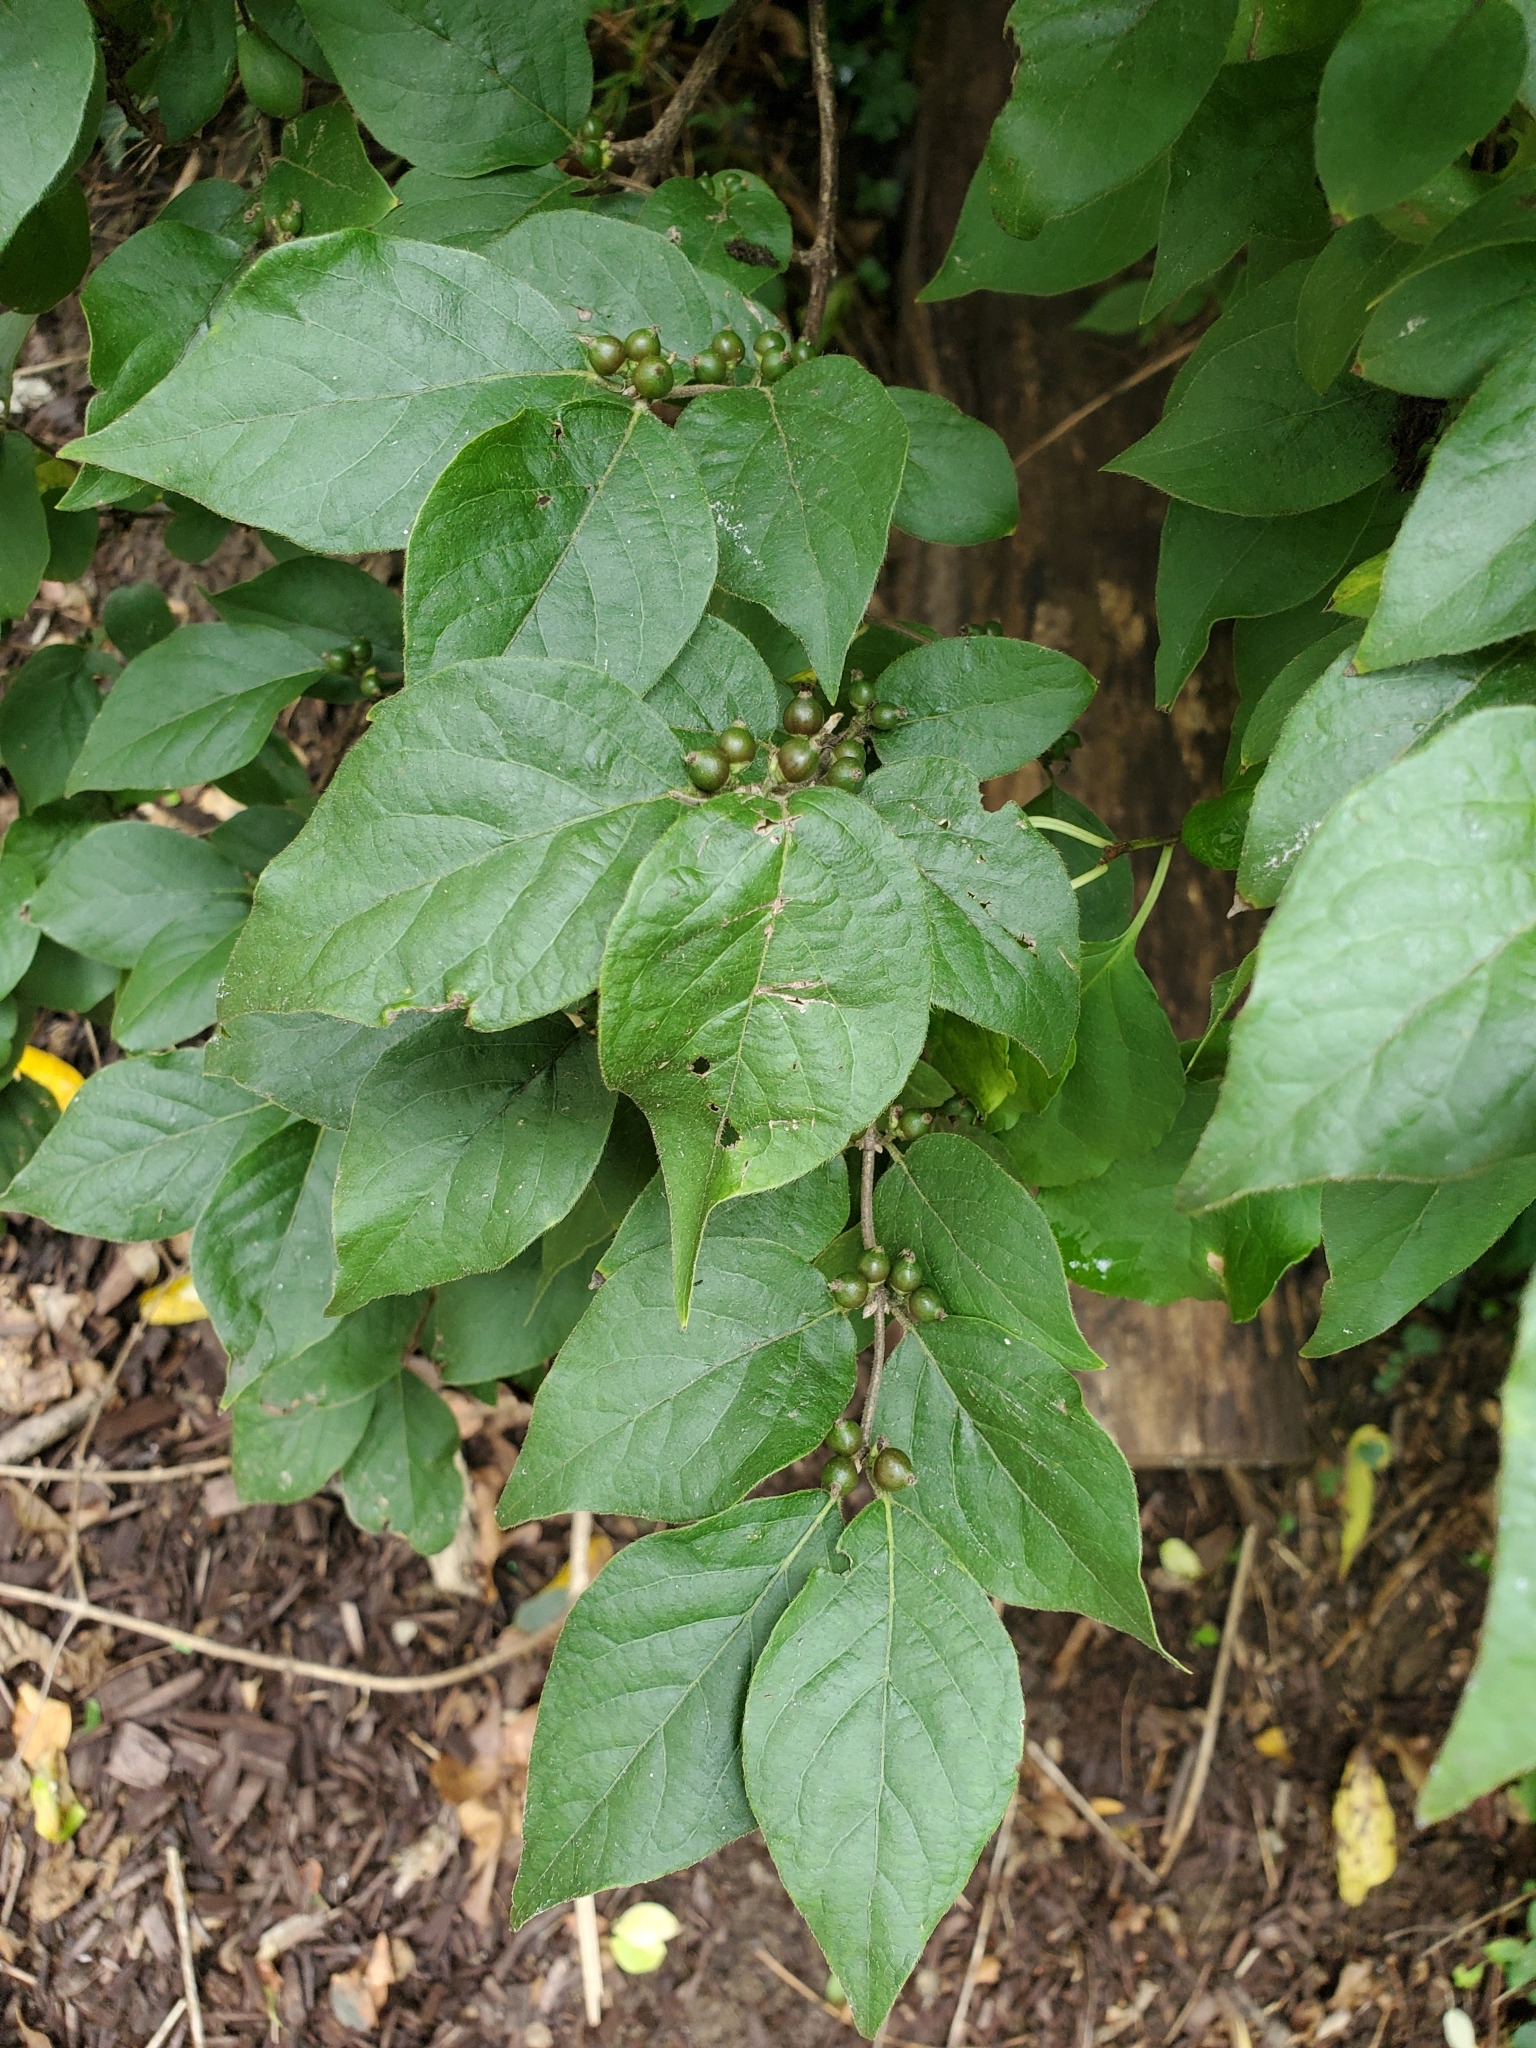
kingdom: Plantae
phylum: Tracheophyta
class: Magnoliopsida
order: Dipsacales
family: Caprifoliaceae
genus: Lonicera
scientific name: Lonicera maackii
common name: Amur honeysuckle
